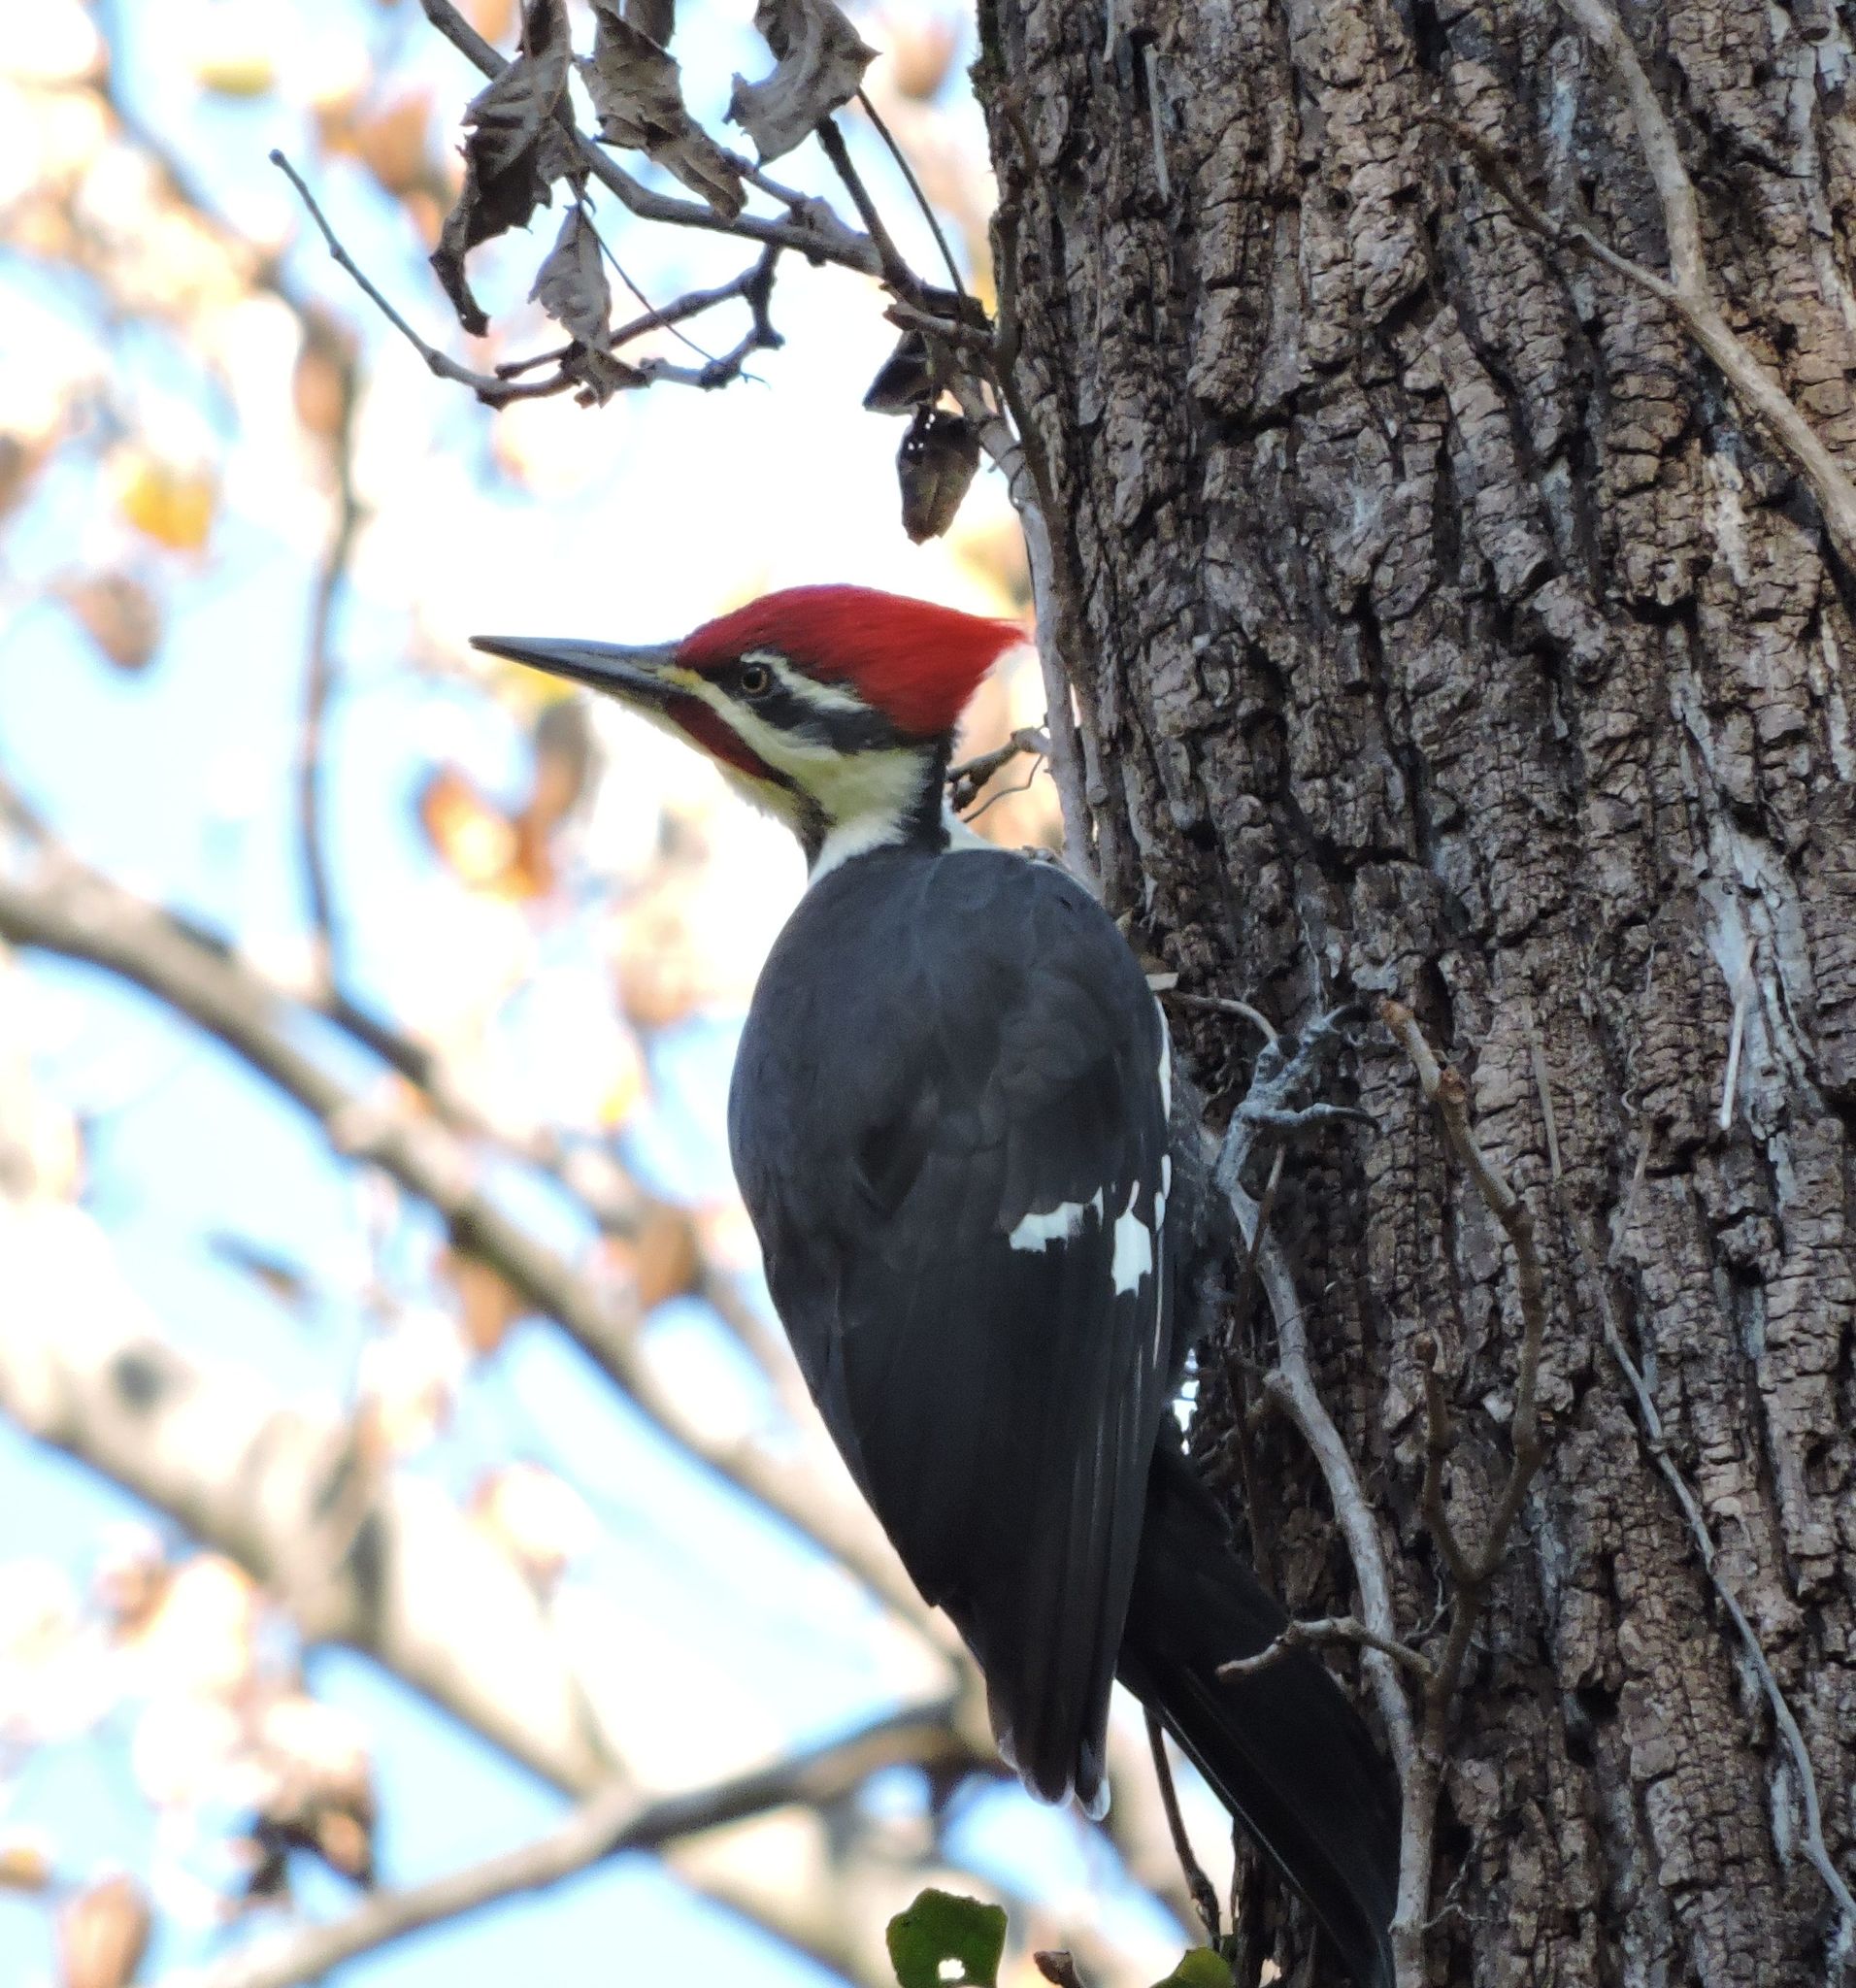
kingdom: Animalia
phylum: Chordata
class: Aves
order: Piciformes
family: Picidae
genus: Dryocopus
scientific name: Dryocopus pileatus
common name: Pileated woodpecker
